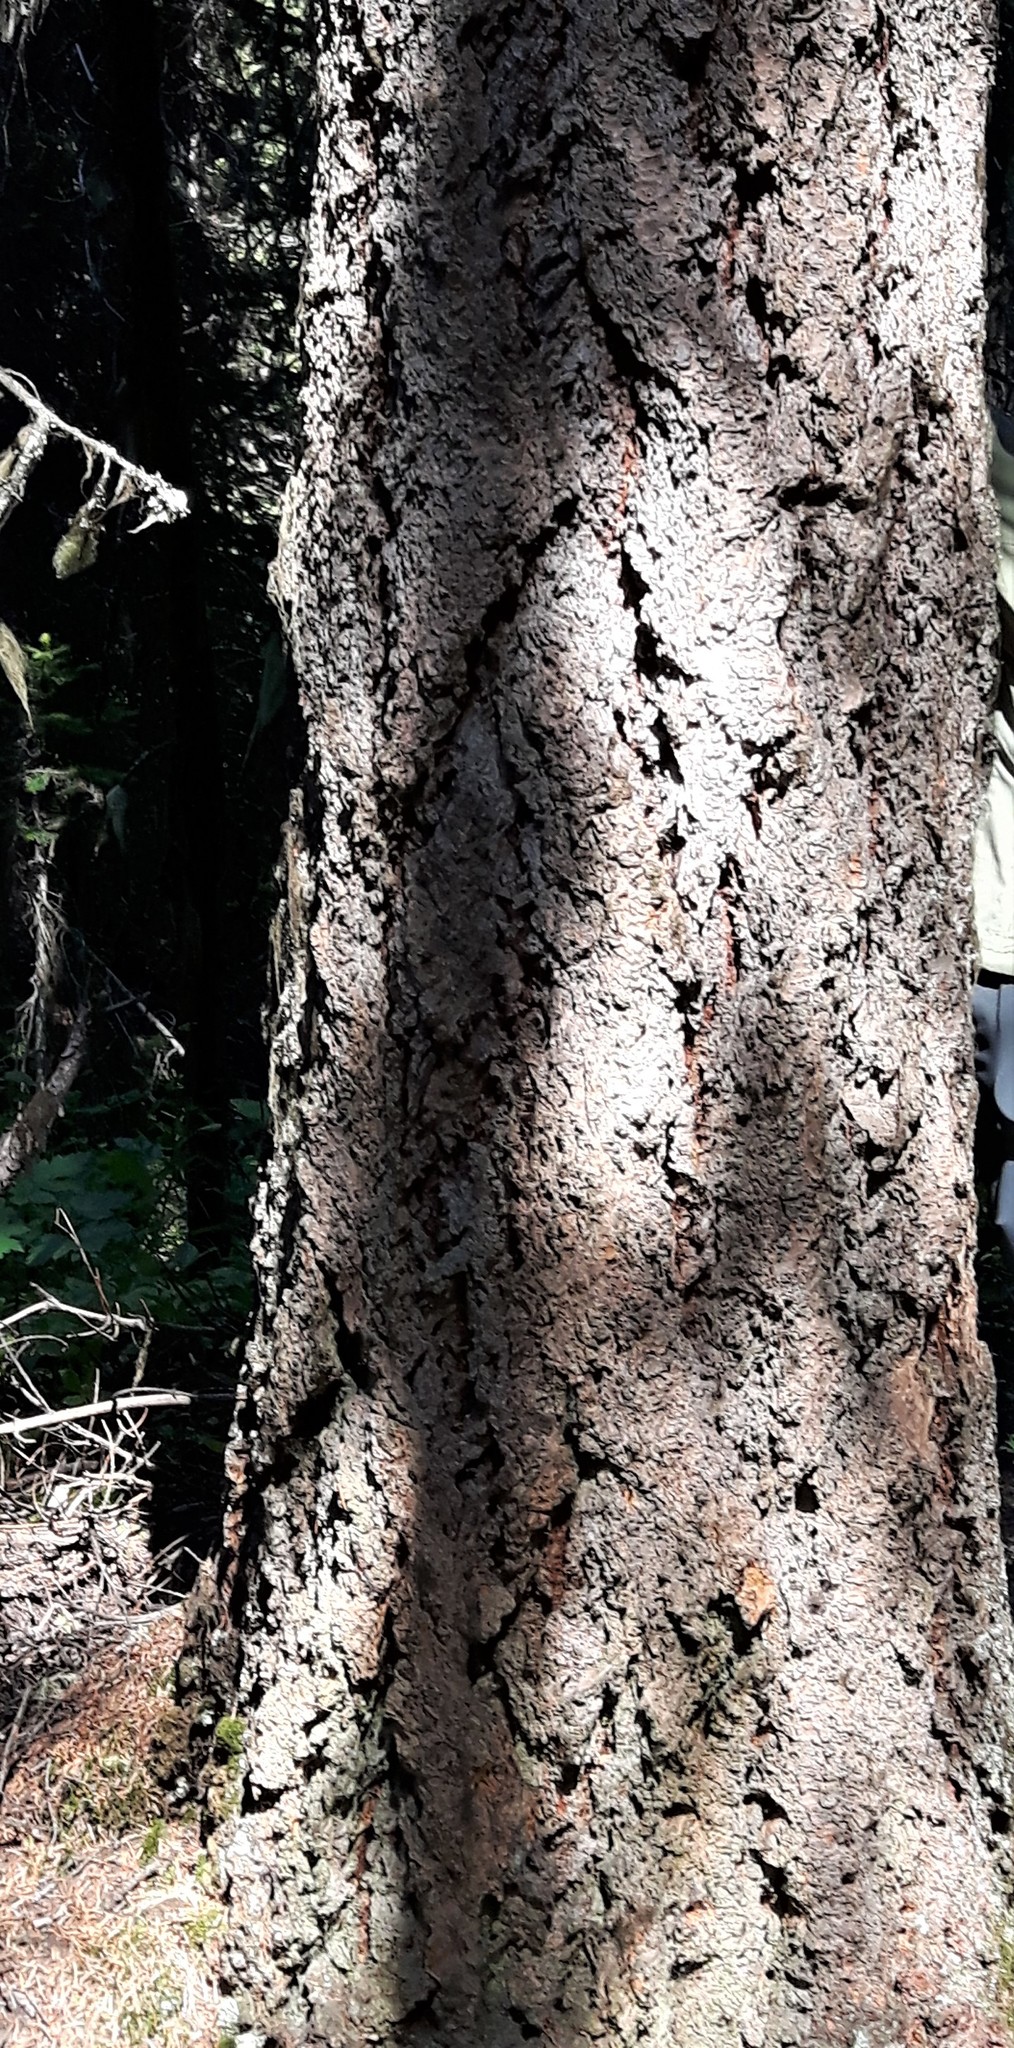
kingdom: Plantae
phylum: Tracheophyta
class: Pinopsida
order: Pinales
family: Pinaceae
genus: Pseudotsuga
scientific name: Pseudotsuga menziesii
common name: Douglas fir
